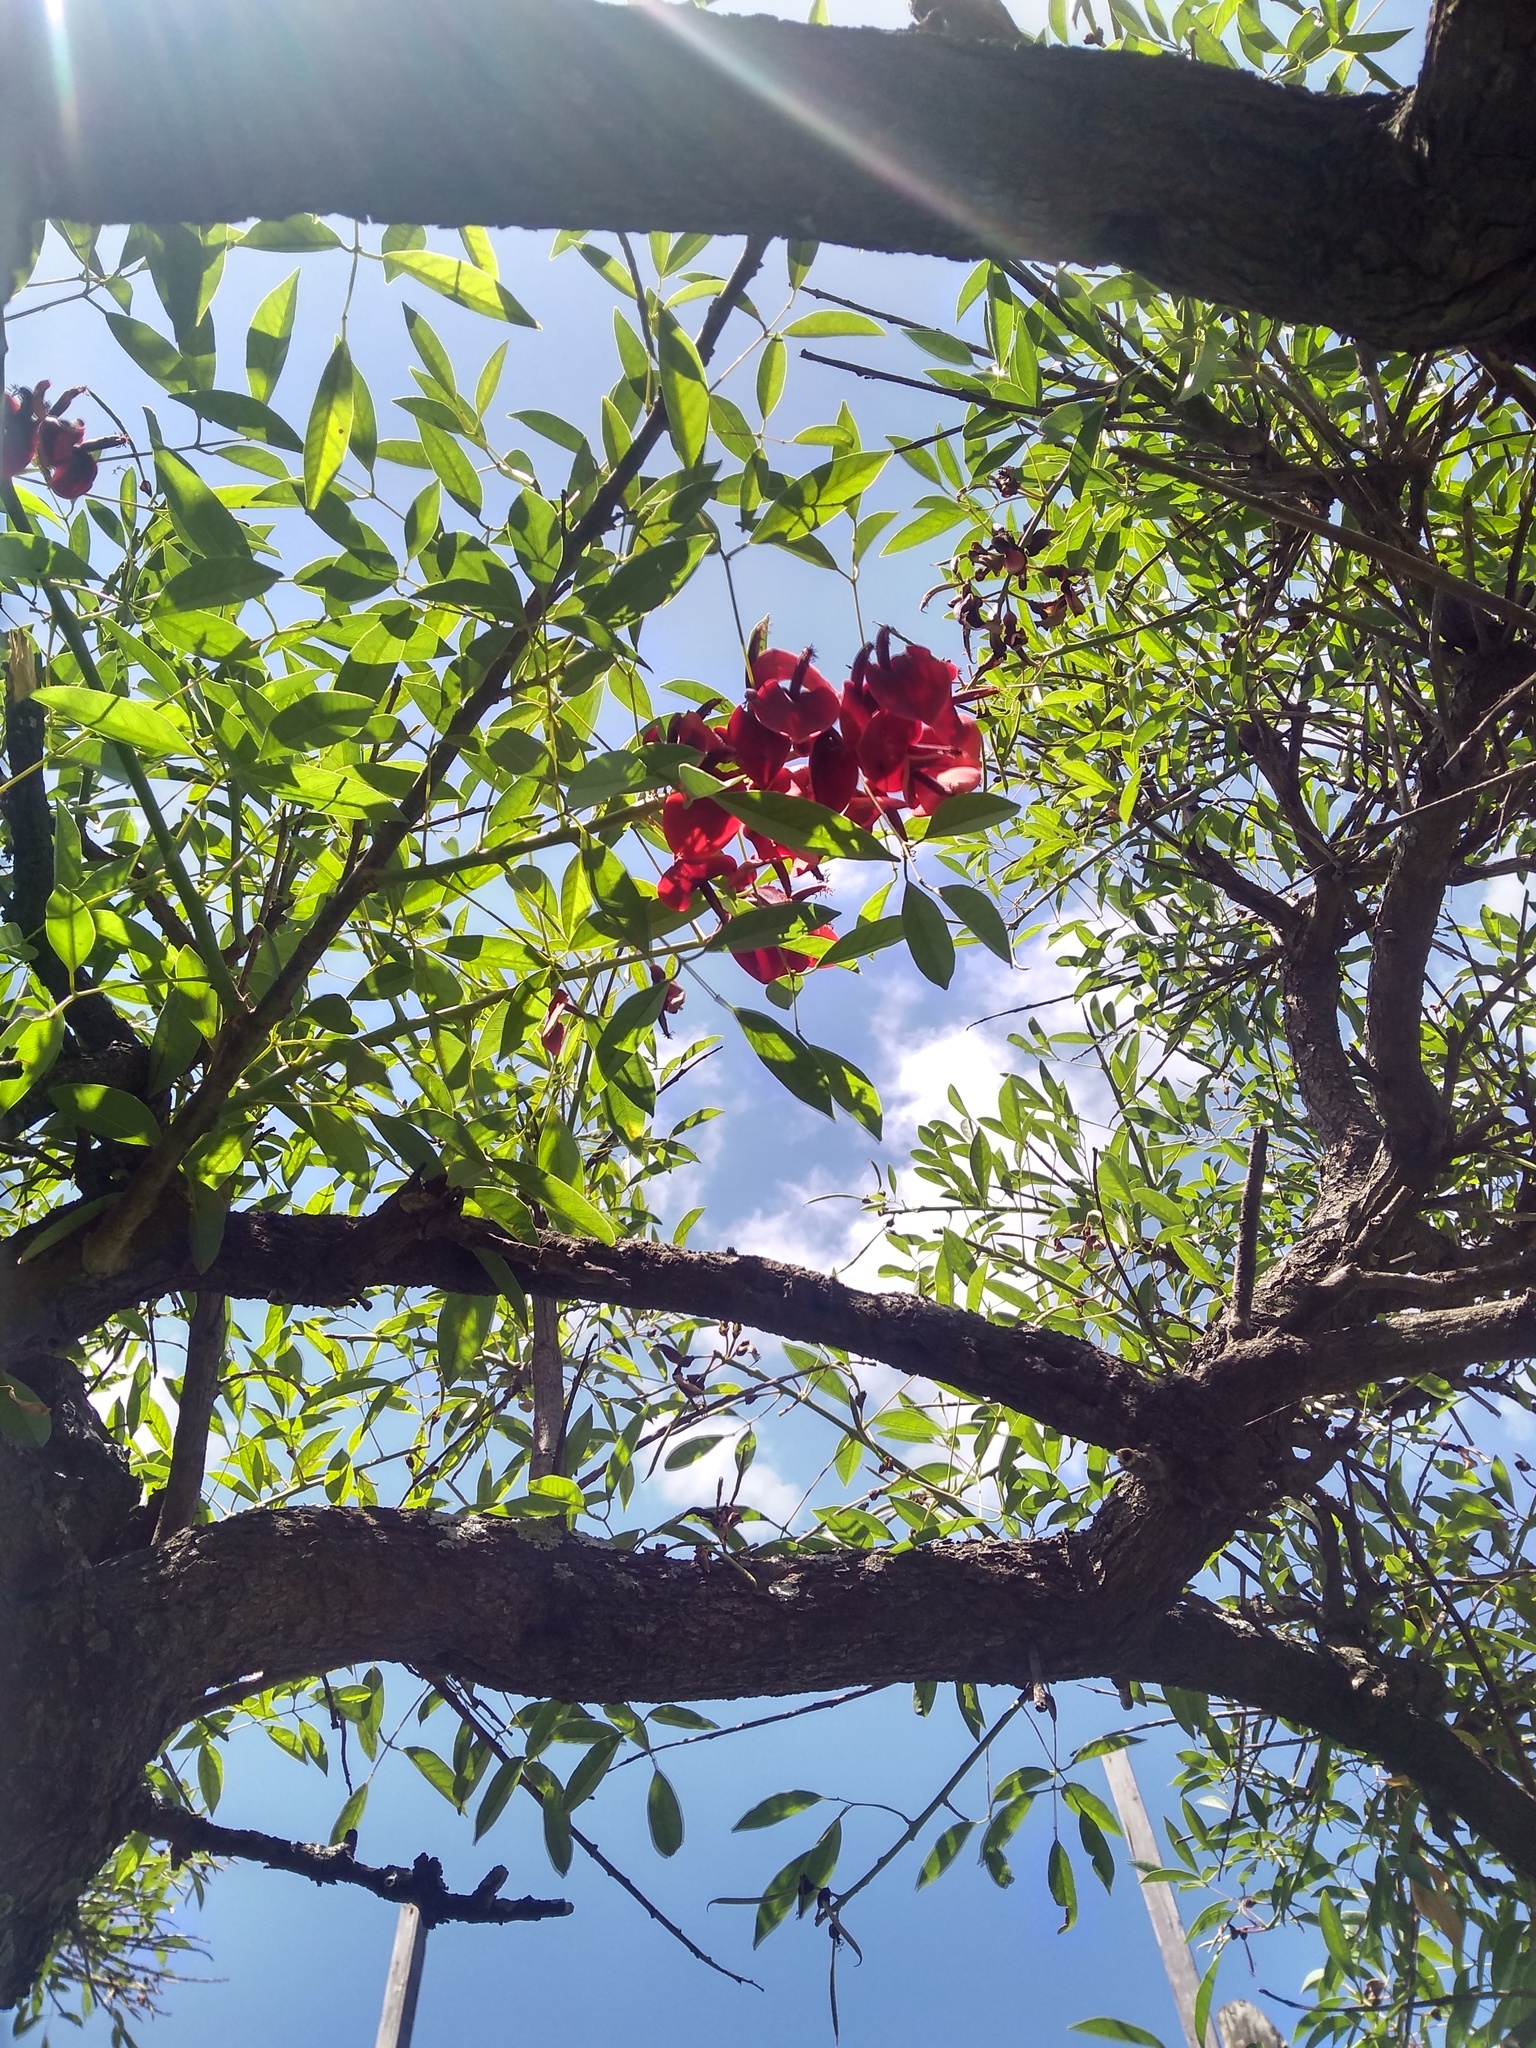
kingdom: Plantae
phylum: Tracheophyta
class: Magnoliopsida
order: Fabales
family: Fabaceae
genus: Erythrina
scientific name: Erythrina crista-galli
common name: Cockspur coral tree
